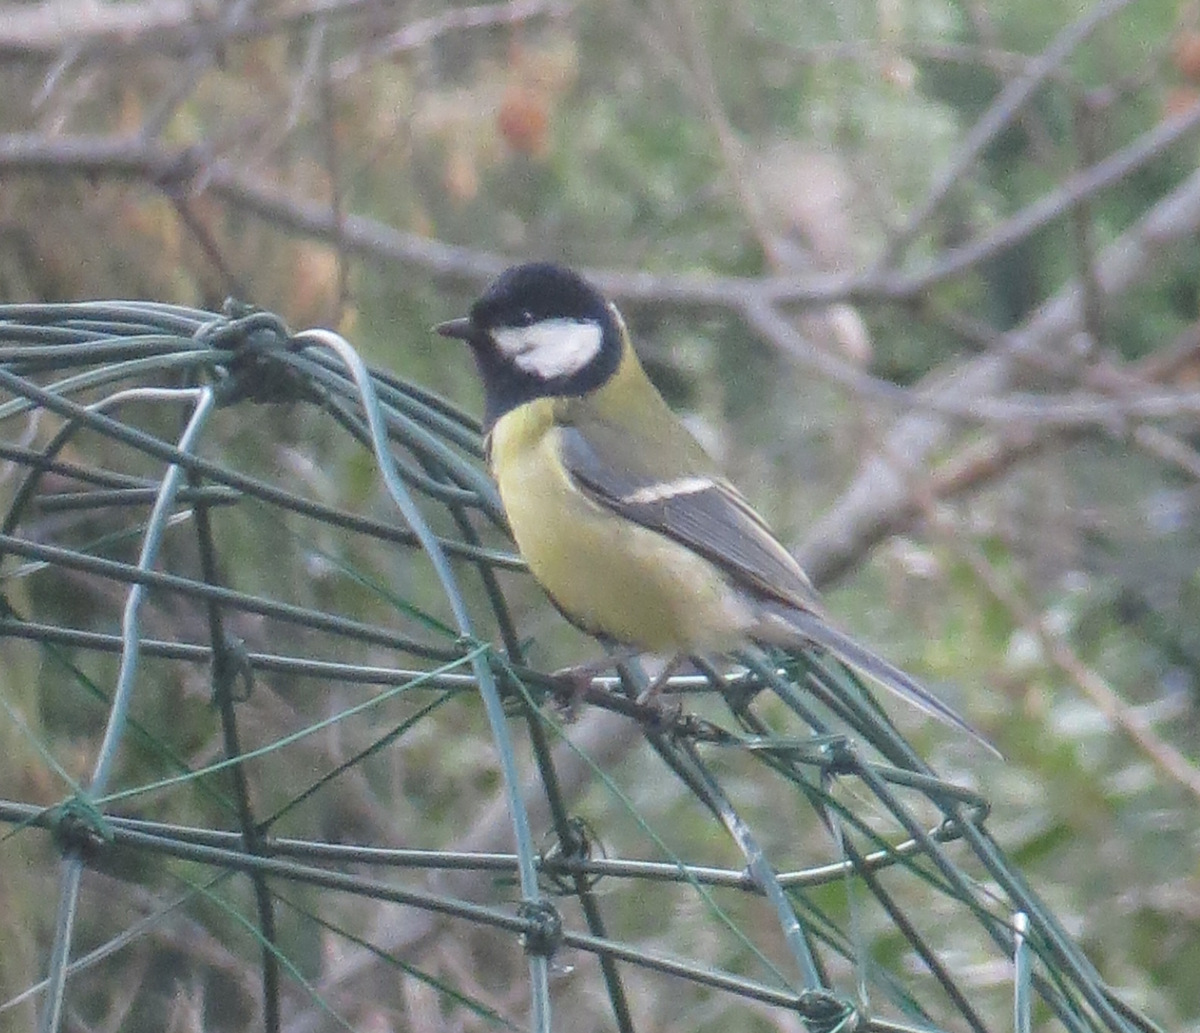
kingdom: Animalia
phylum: Chordata
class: Aves
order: Passeriformes
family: Paridae
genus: Parus
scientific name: Parus major
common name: Great tit
